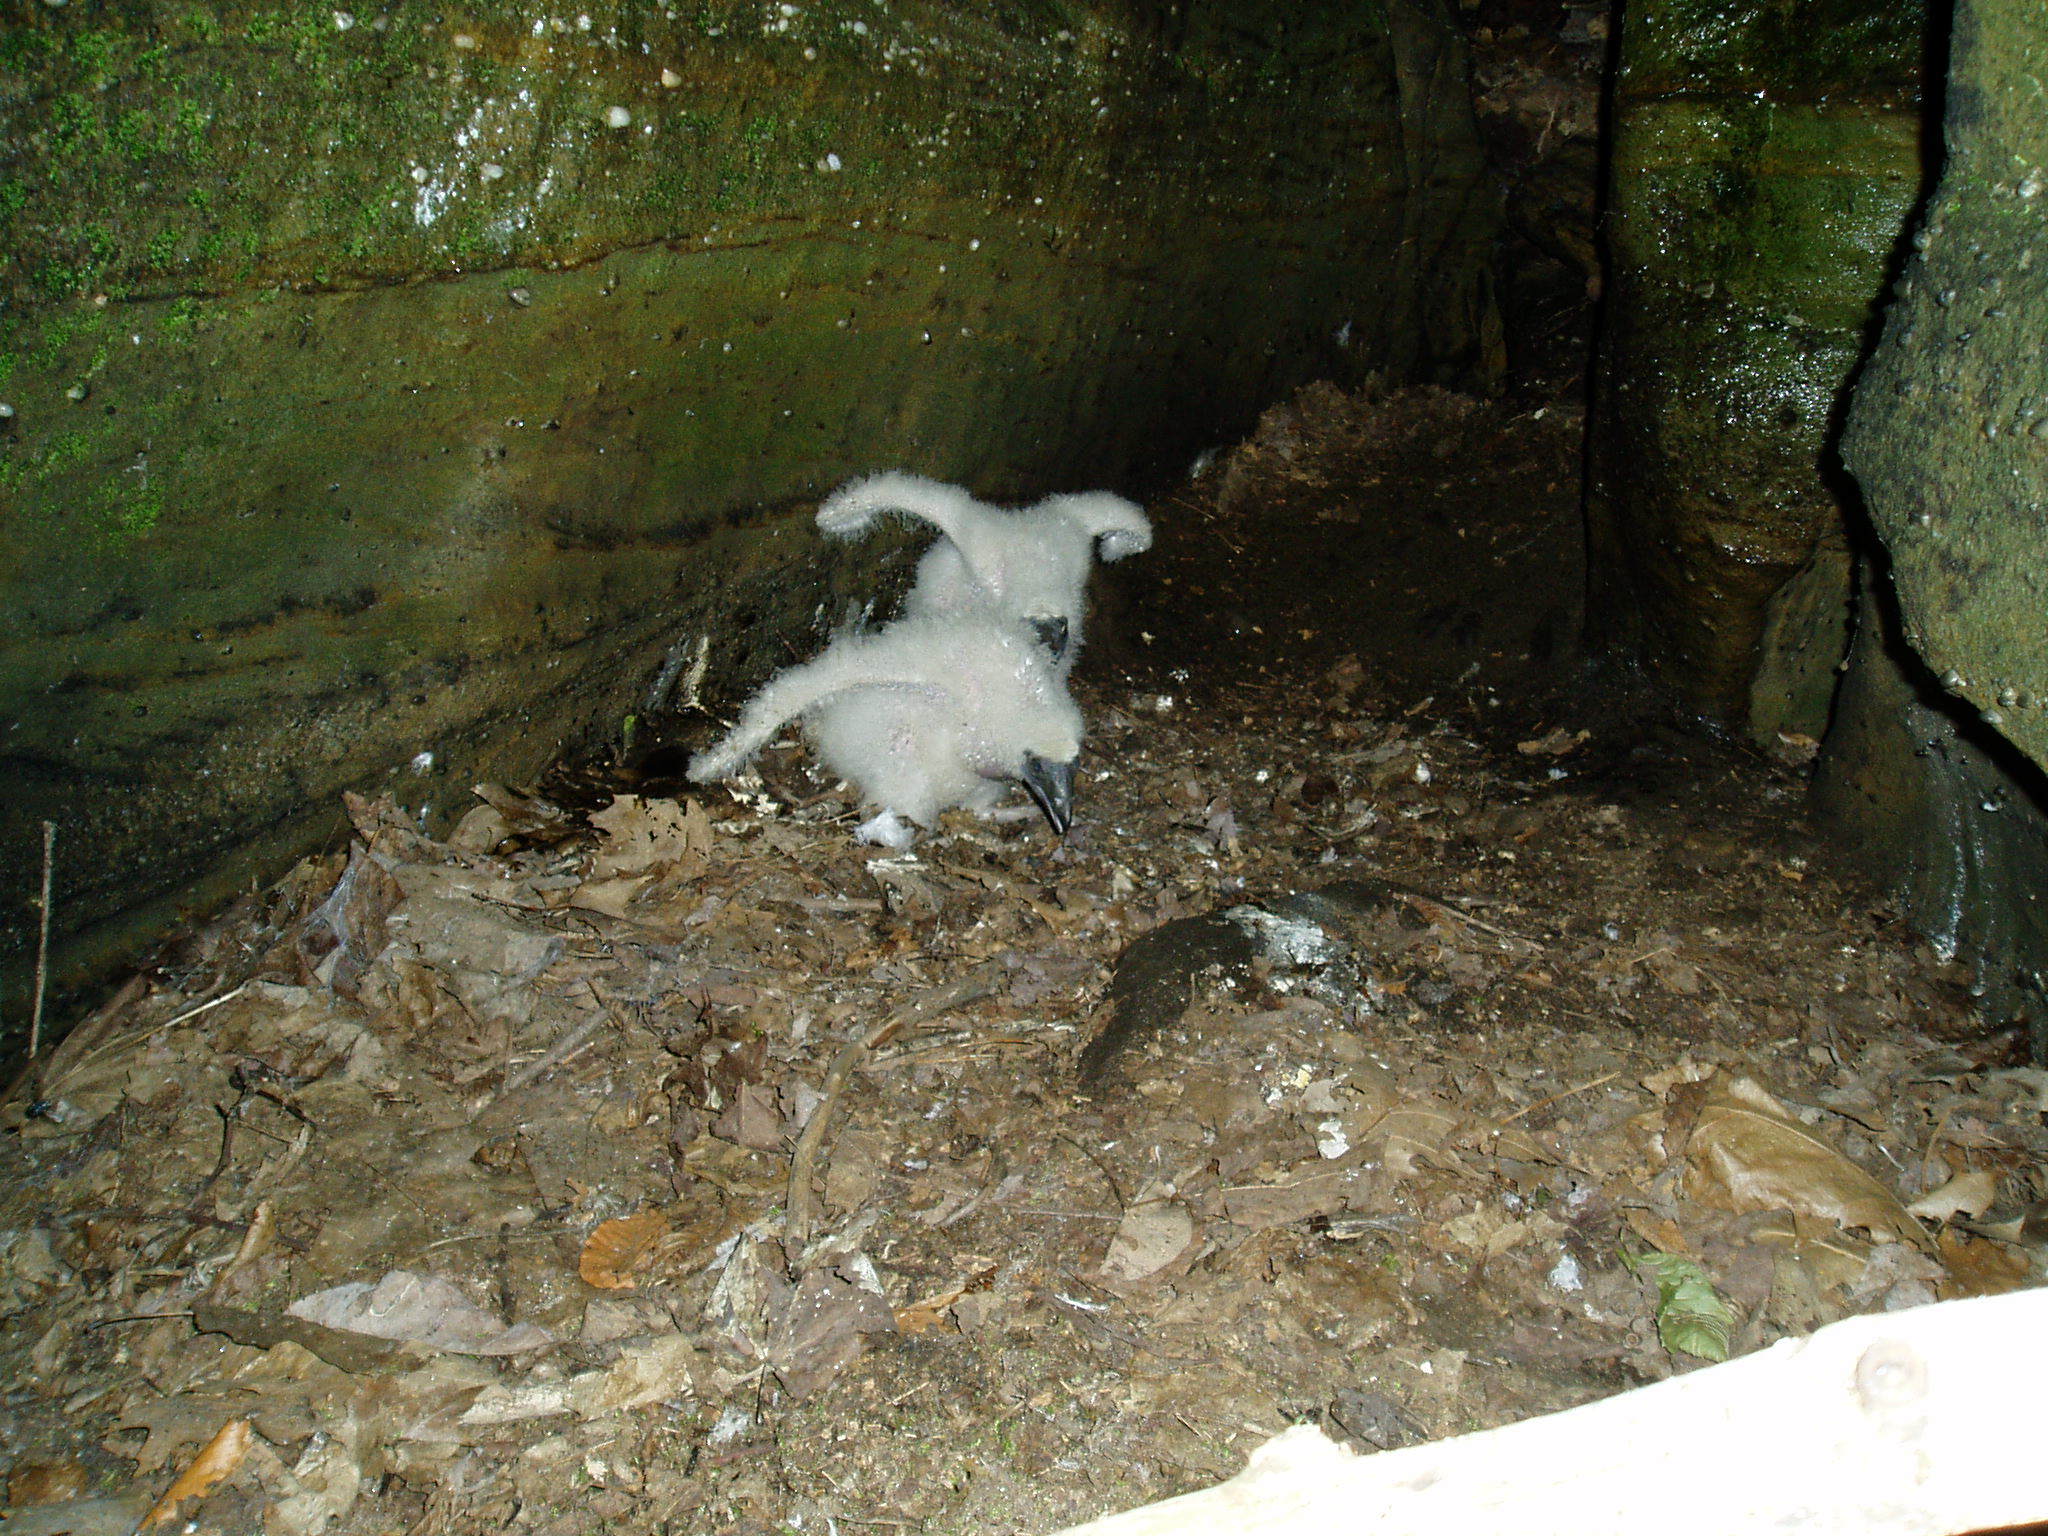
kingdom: Animalia
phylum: Chordata
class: Aves
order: Accipitriformes
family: Cathartidae
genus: Cathartes
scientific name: Cathartes aura
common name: Turkey vulture
